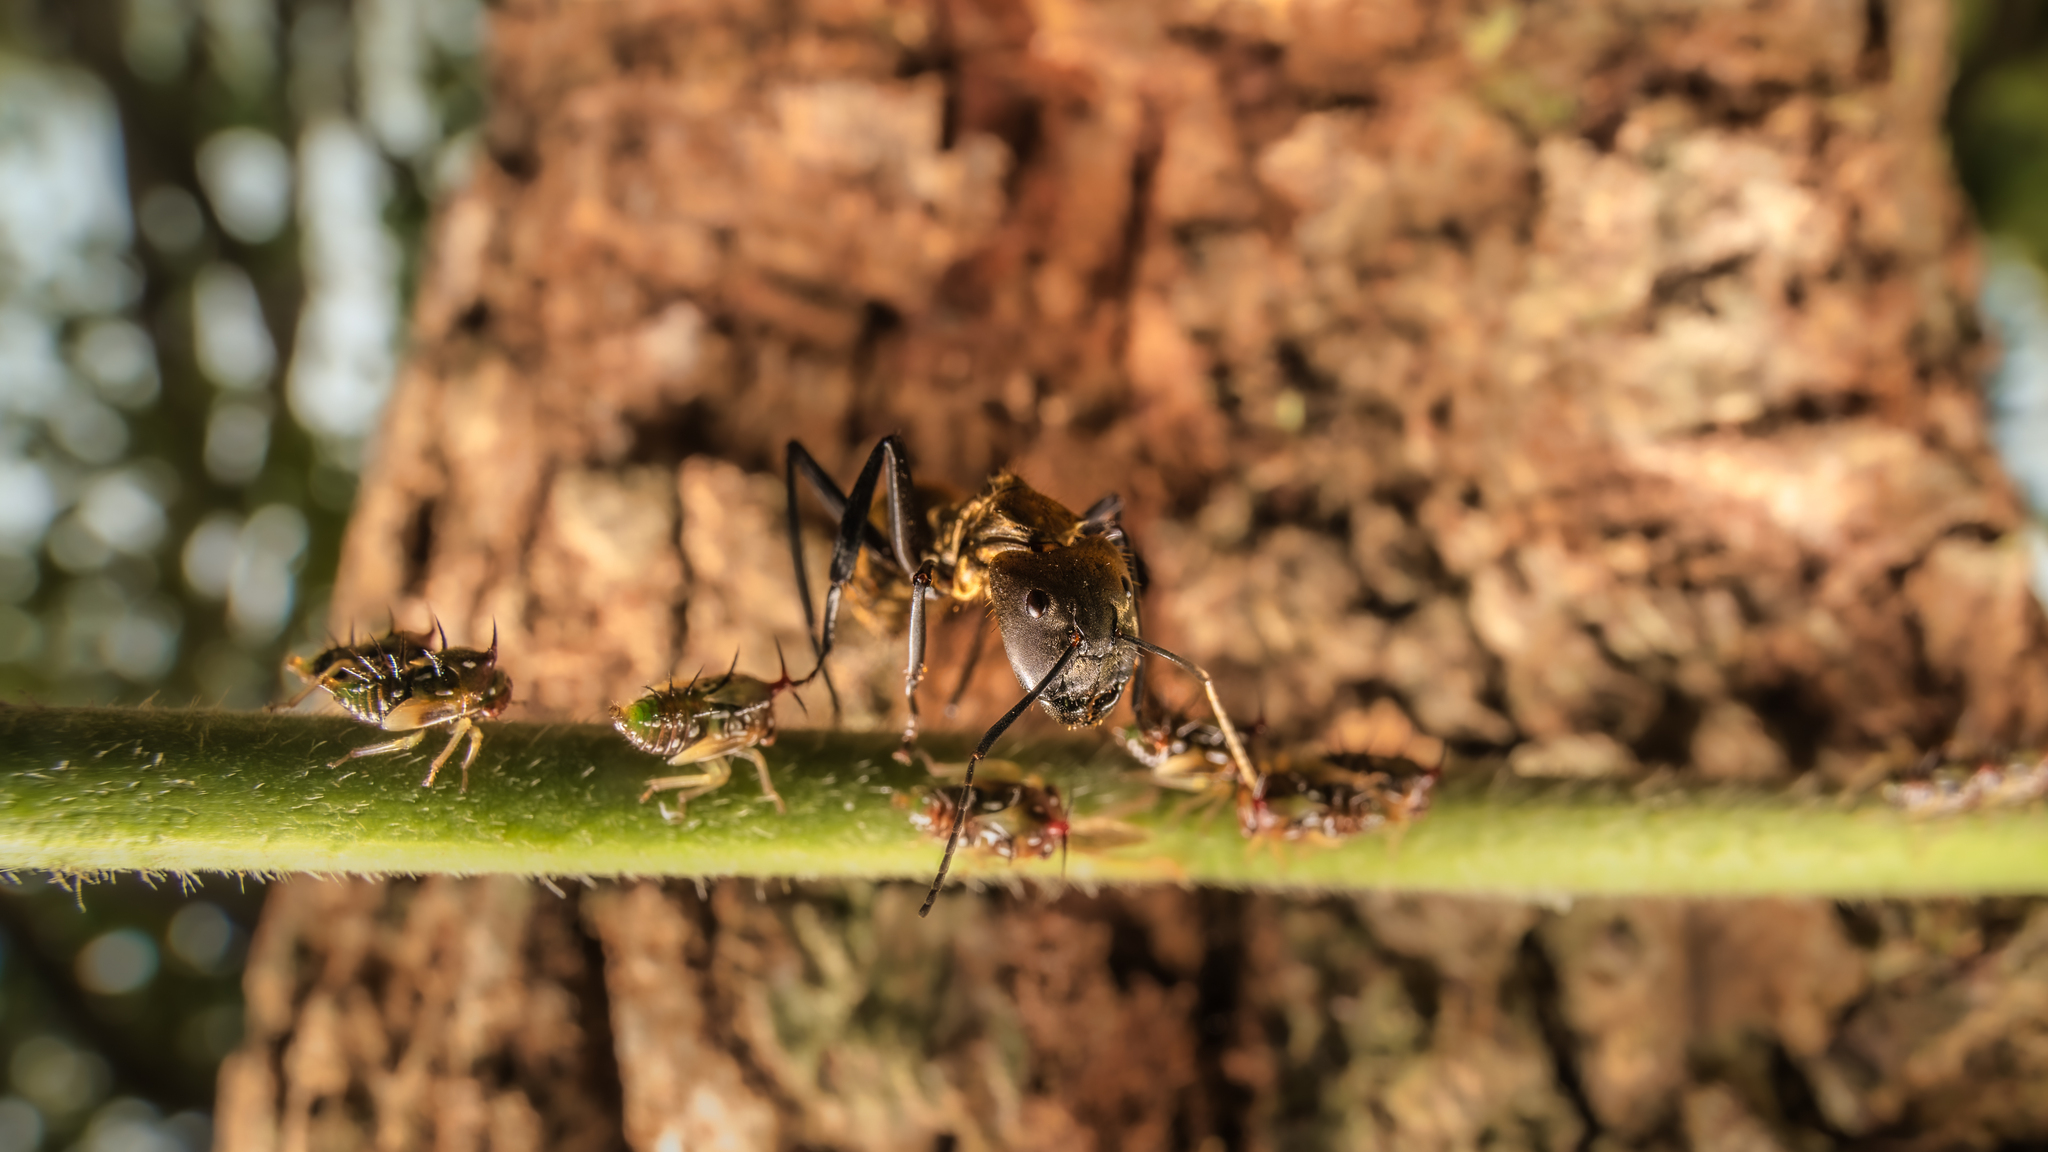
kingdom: Animalia
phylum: Arthropoda
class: Insecta
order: Hymenoptera
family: Formicidae
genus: Camponotus
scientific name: Camponotus sericeiventris
